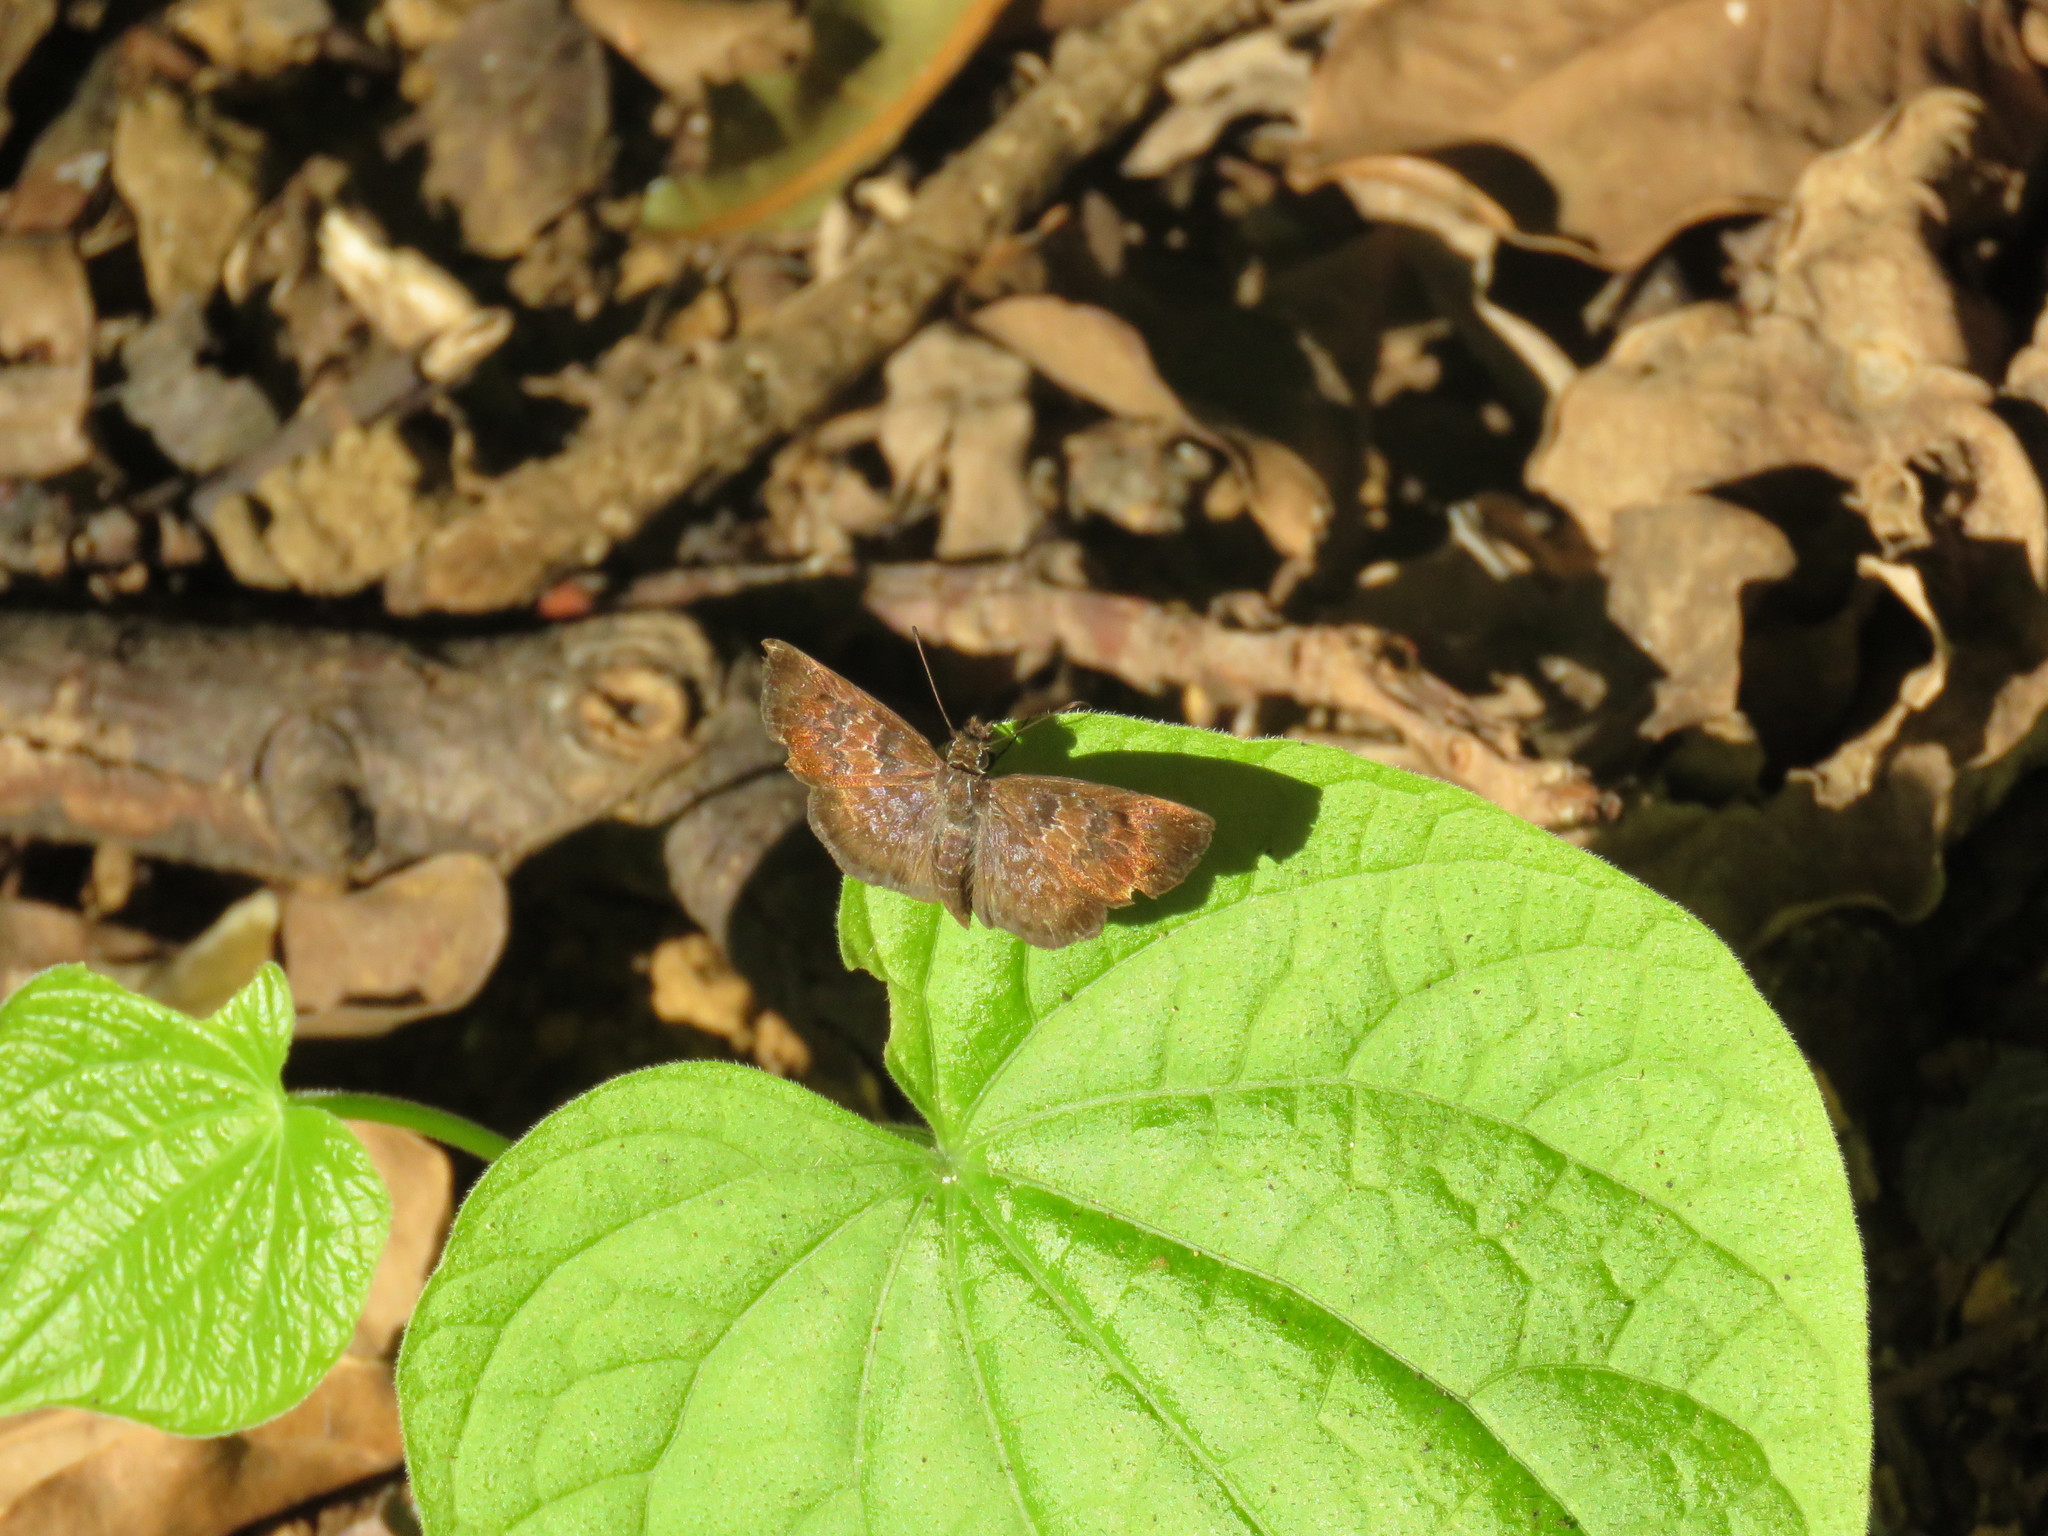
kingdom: Animalia
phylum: Arthropoda
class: Insecta
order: Lepidoptera
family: Hesperiidae
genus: Sophista
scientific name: Sophista bifasciata
